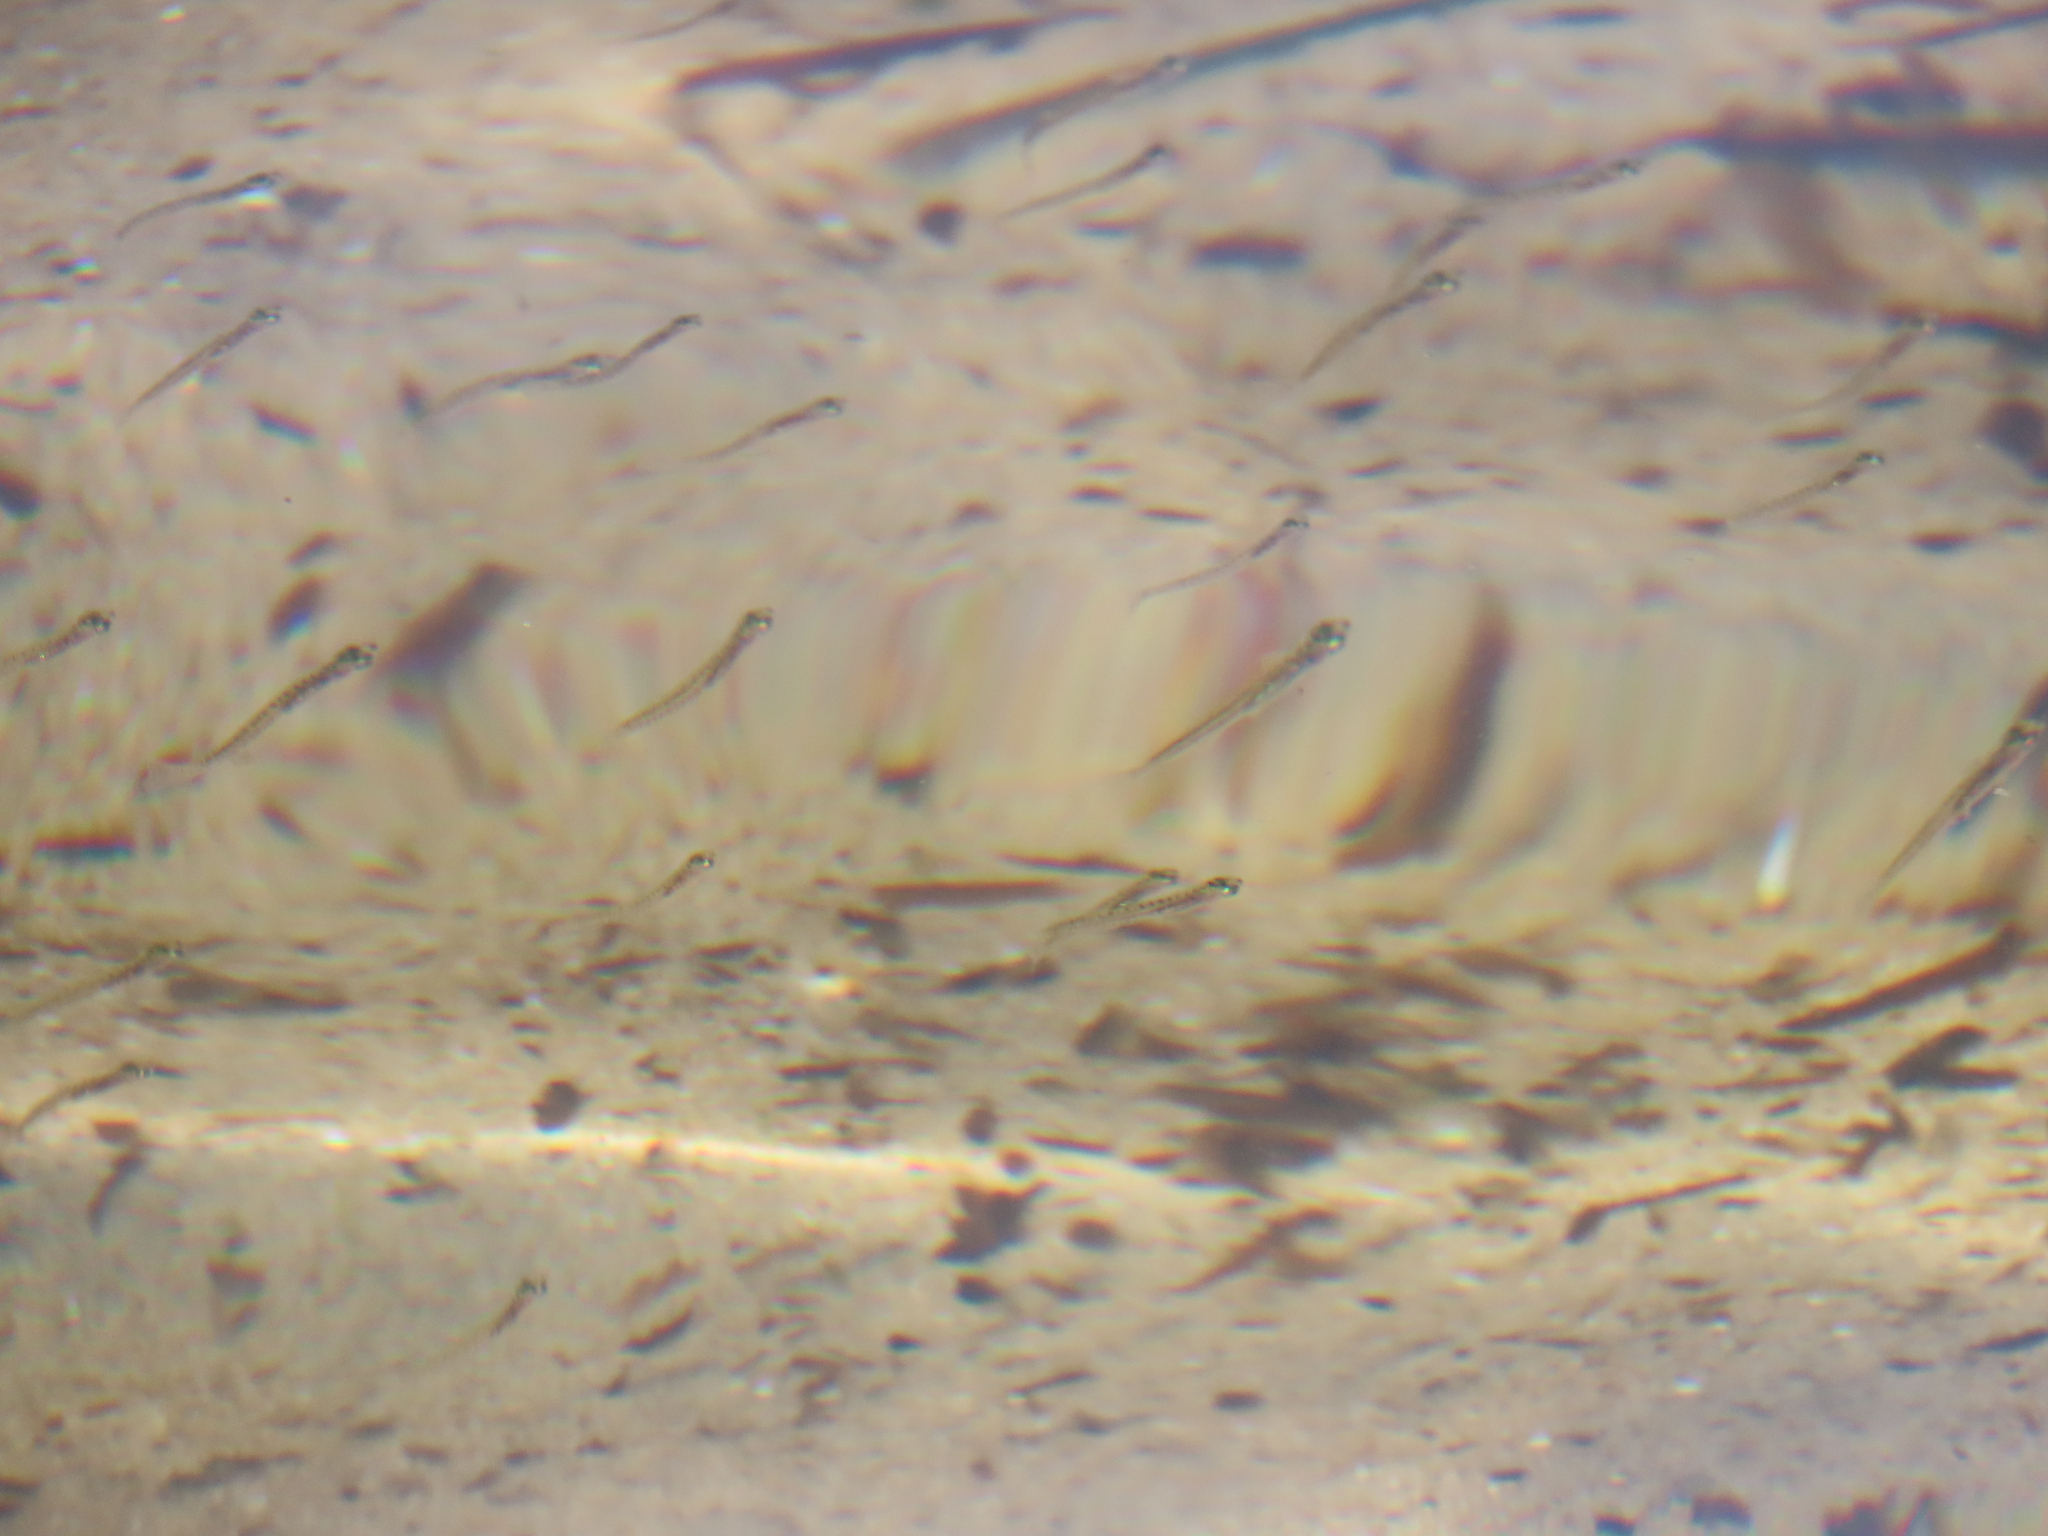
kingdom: Animalia
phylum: Chordata
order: Atheriniformes
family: Atherinopsidae
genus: Atherinopsis
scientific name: Atherinopsis californiensis
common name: Jack silverside
